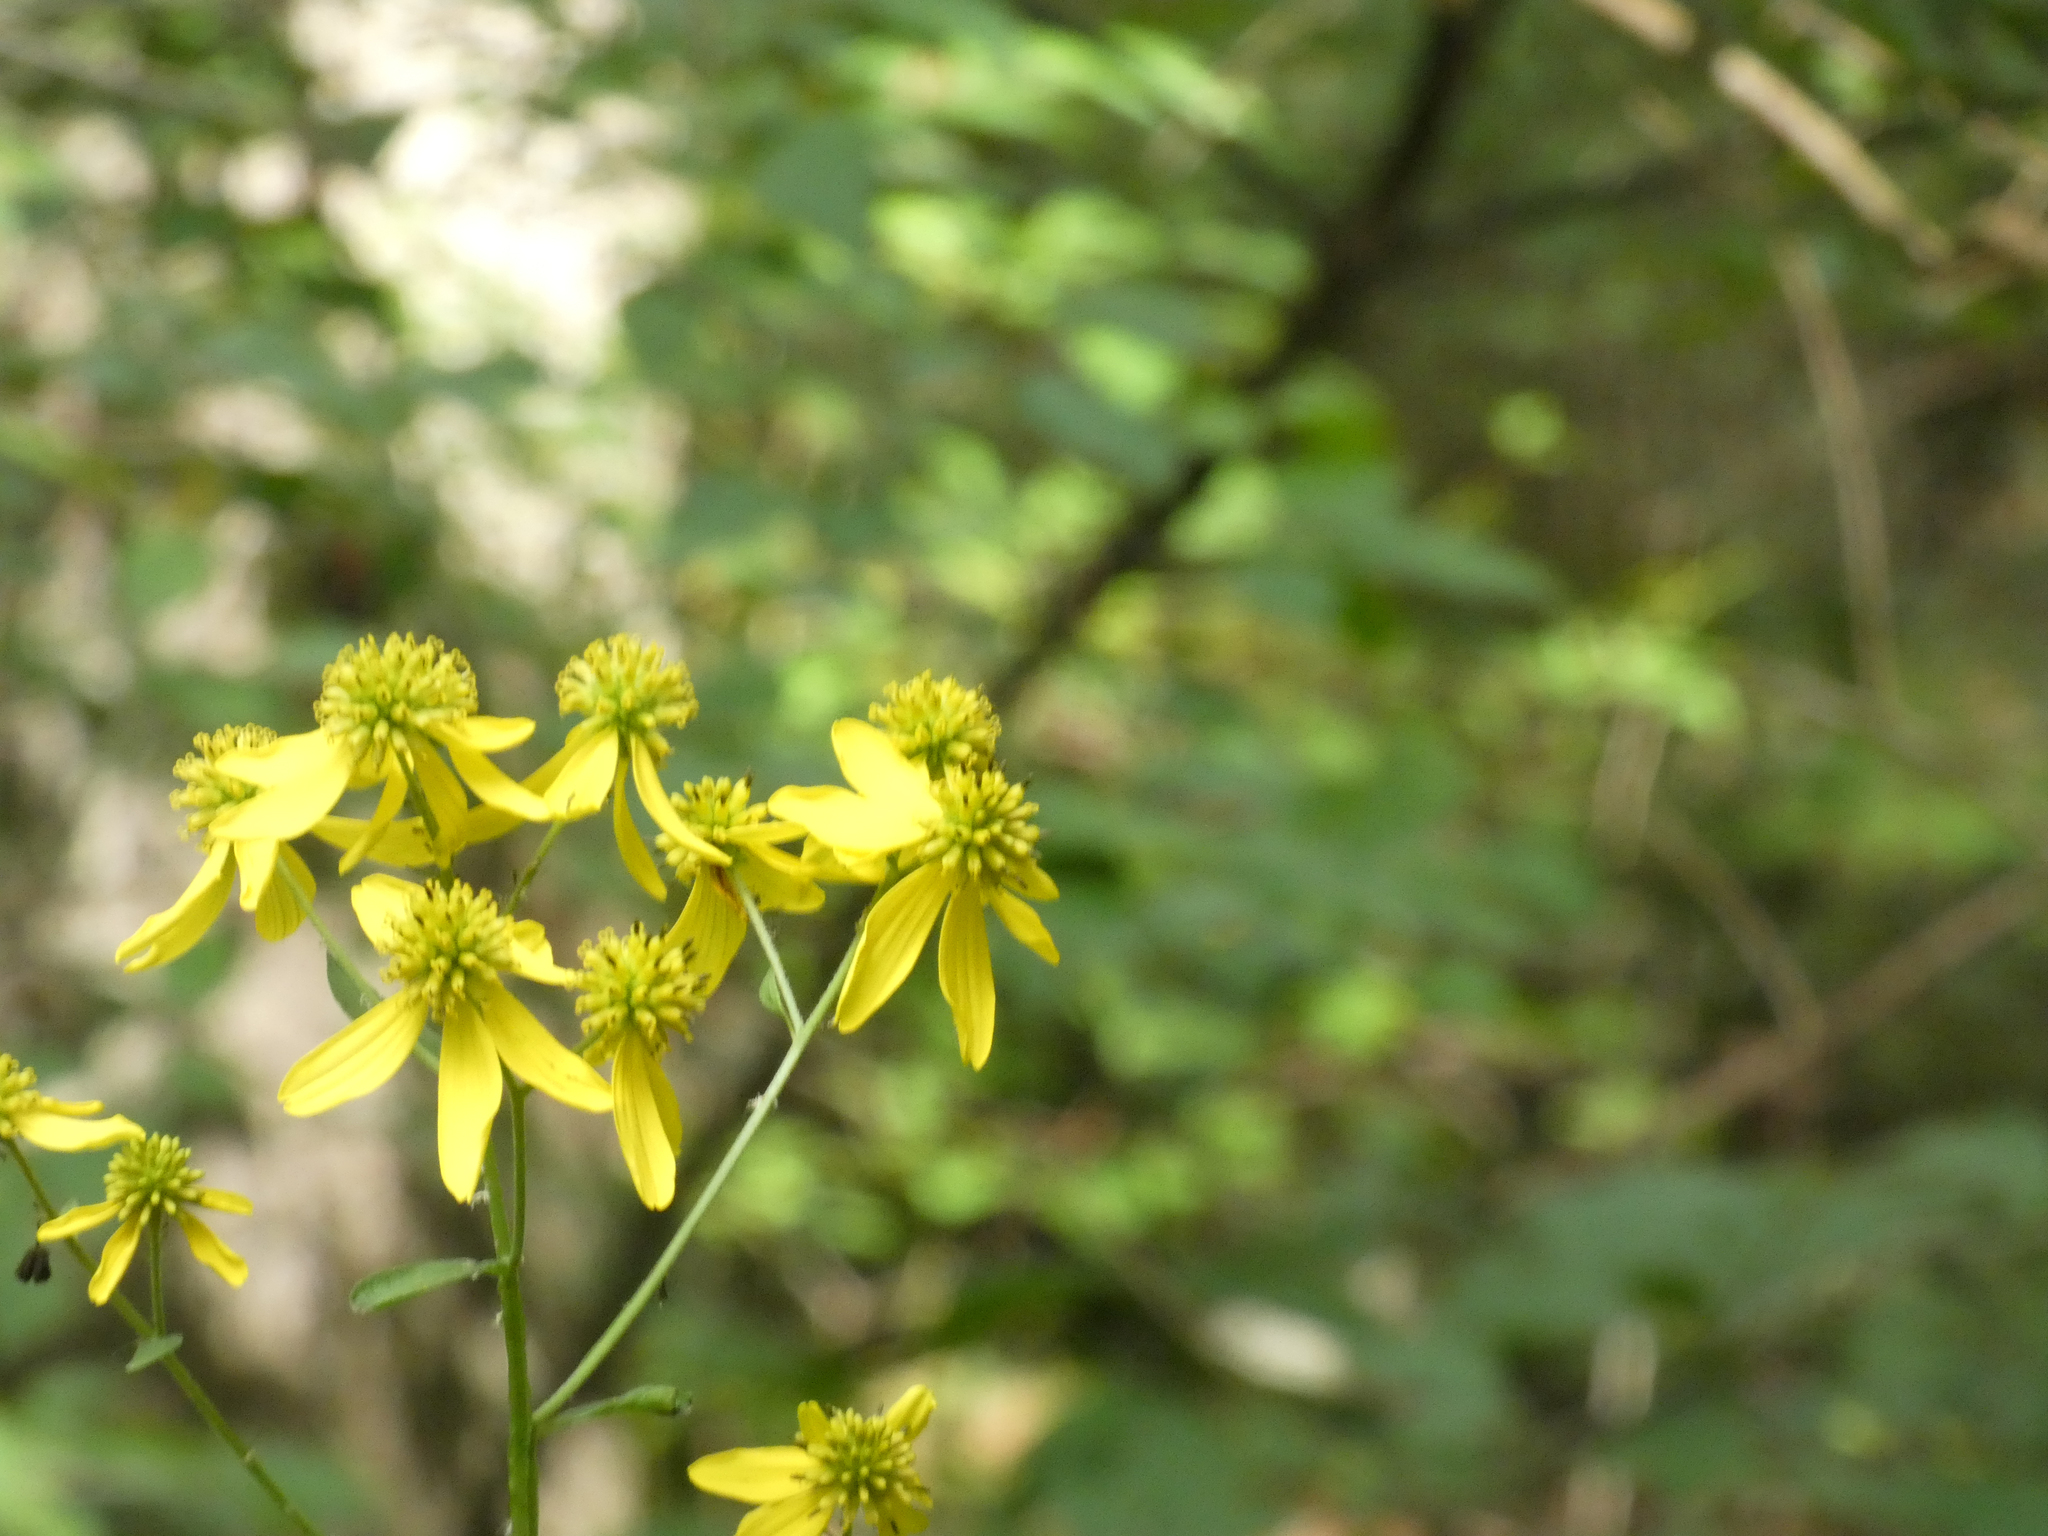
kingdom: Plantae
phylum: Tracheophyta
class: Magnoliopsida
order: Asterales
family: Asteraceae
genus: Verbesina
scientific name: Verbesina alternifolia
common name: Wingstem
